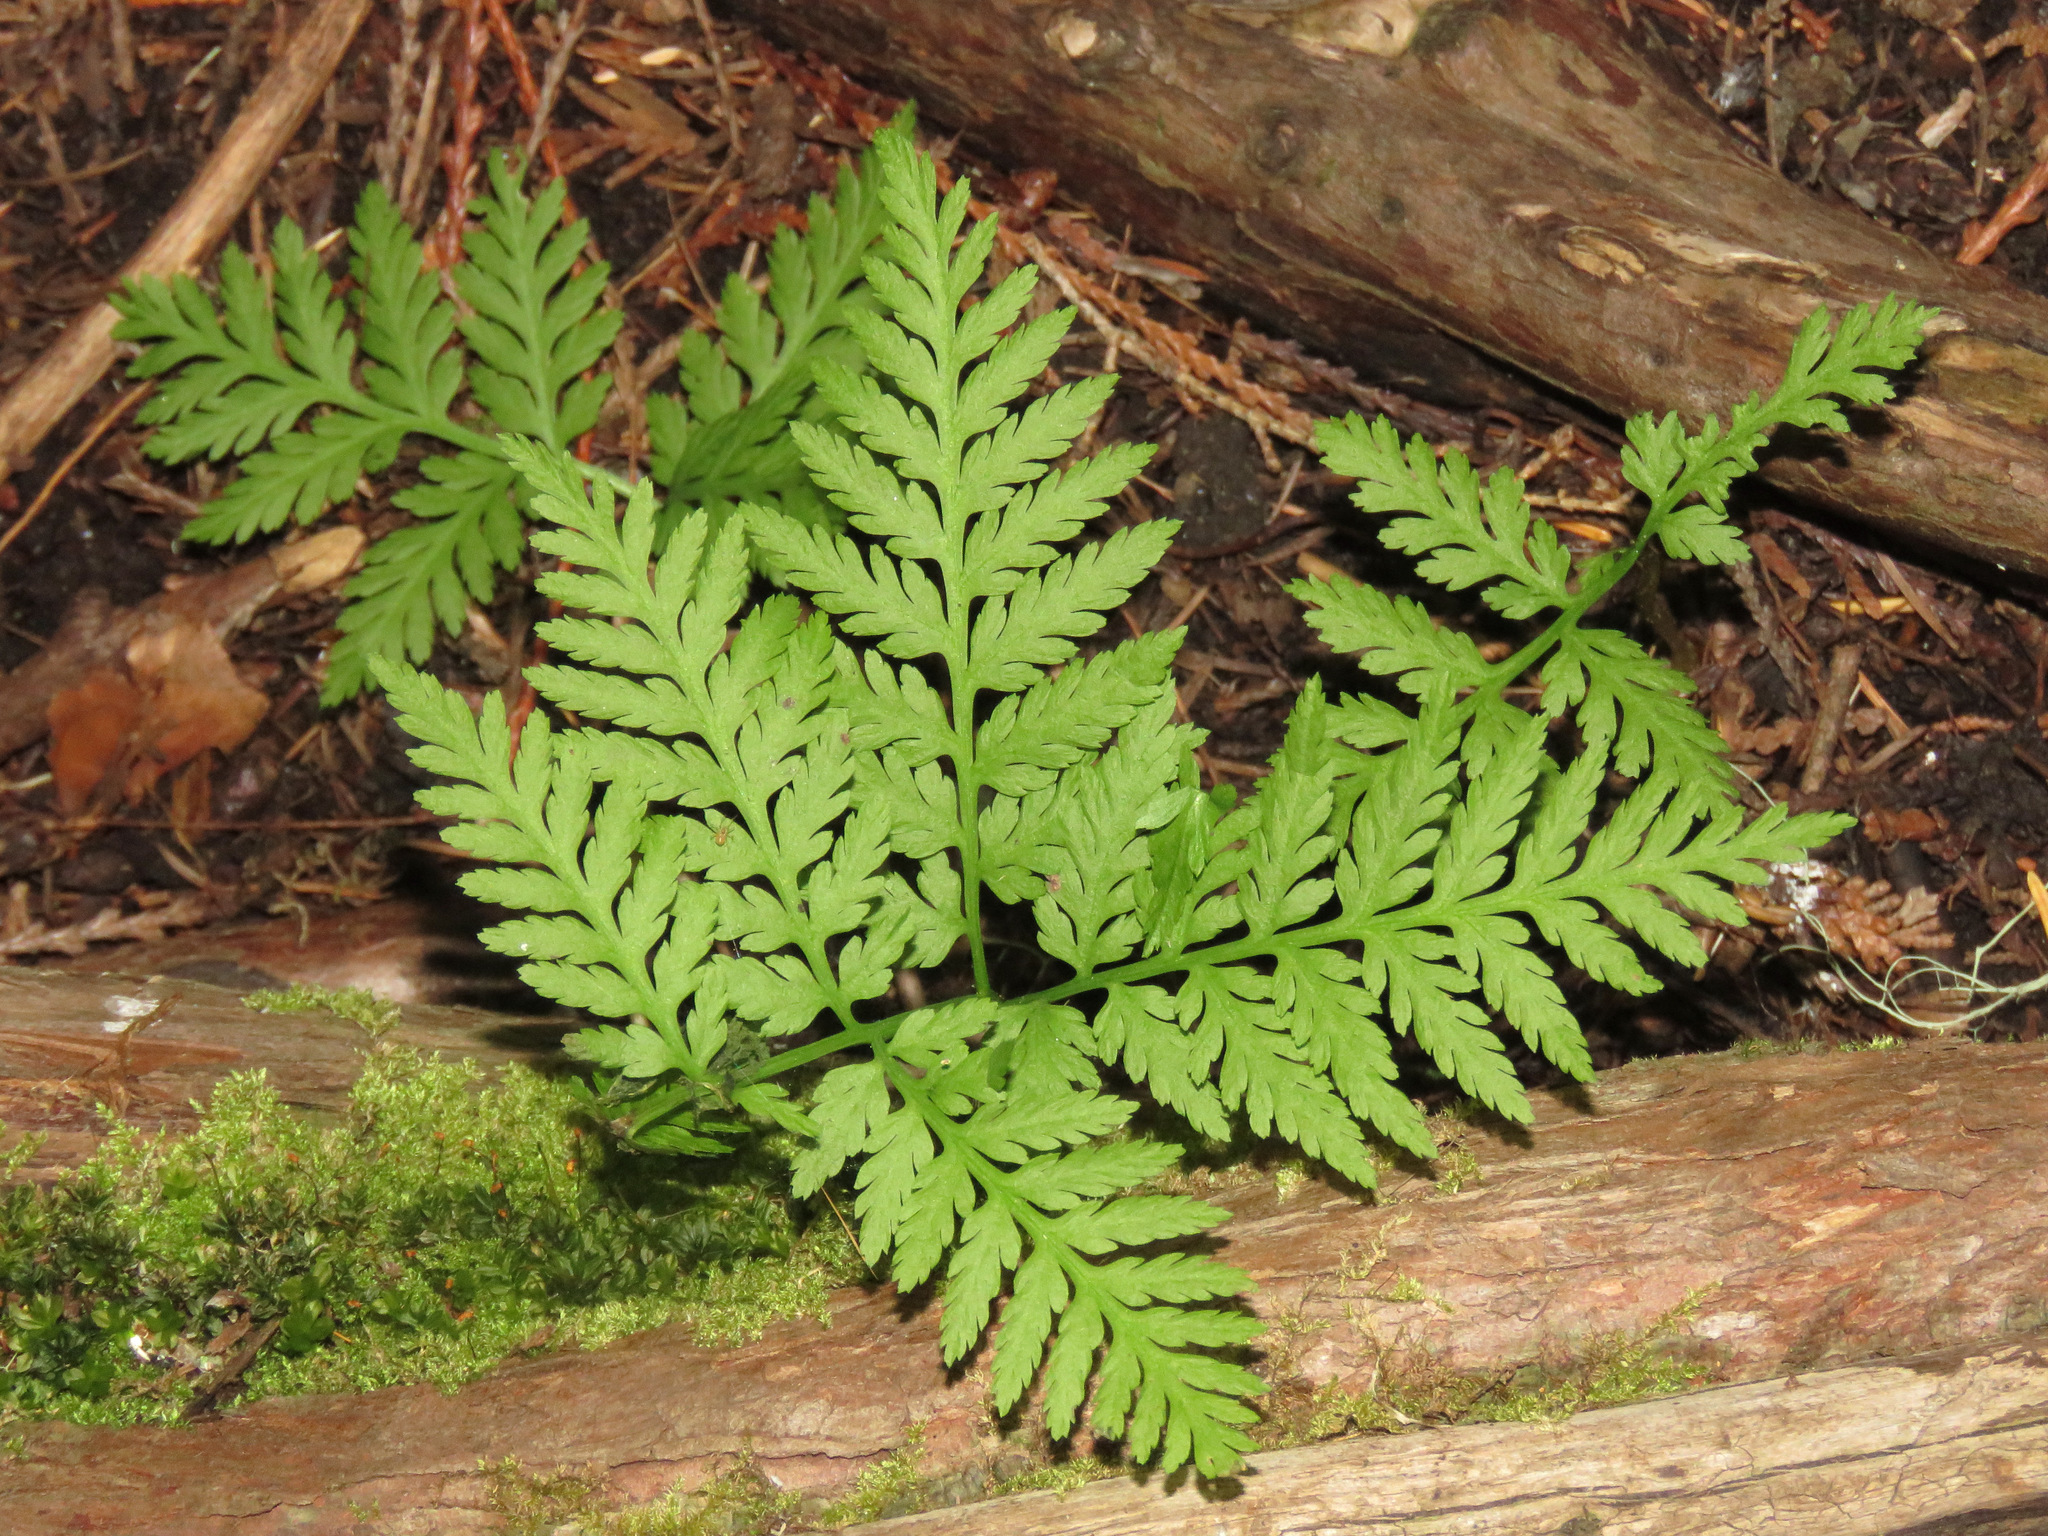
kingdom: Plantae
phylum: Tracheophyta
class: Polypodiopsida
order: Ophioglossales
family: Ophioglossaceae
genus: Botrypus
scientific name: Botrypus virginianus
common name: Common grapefern
